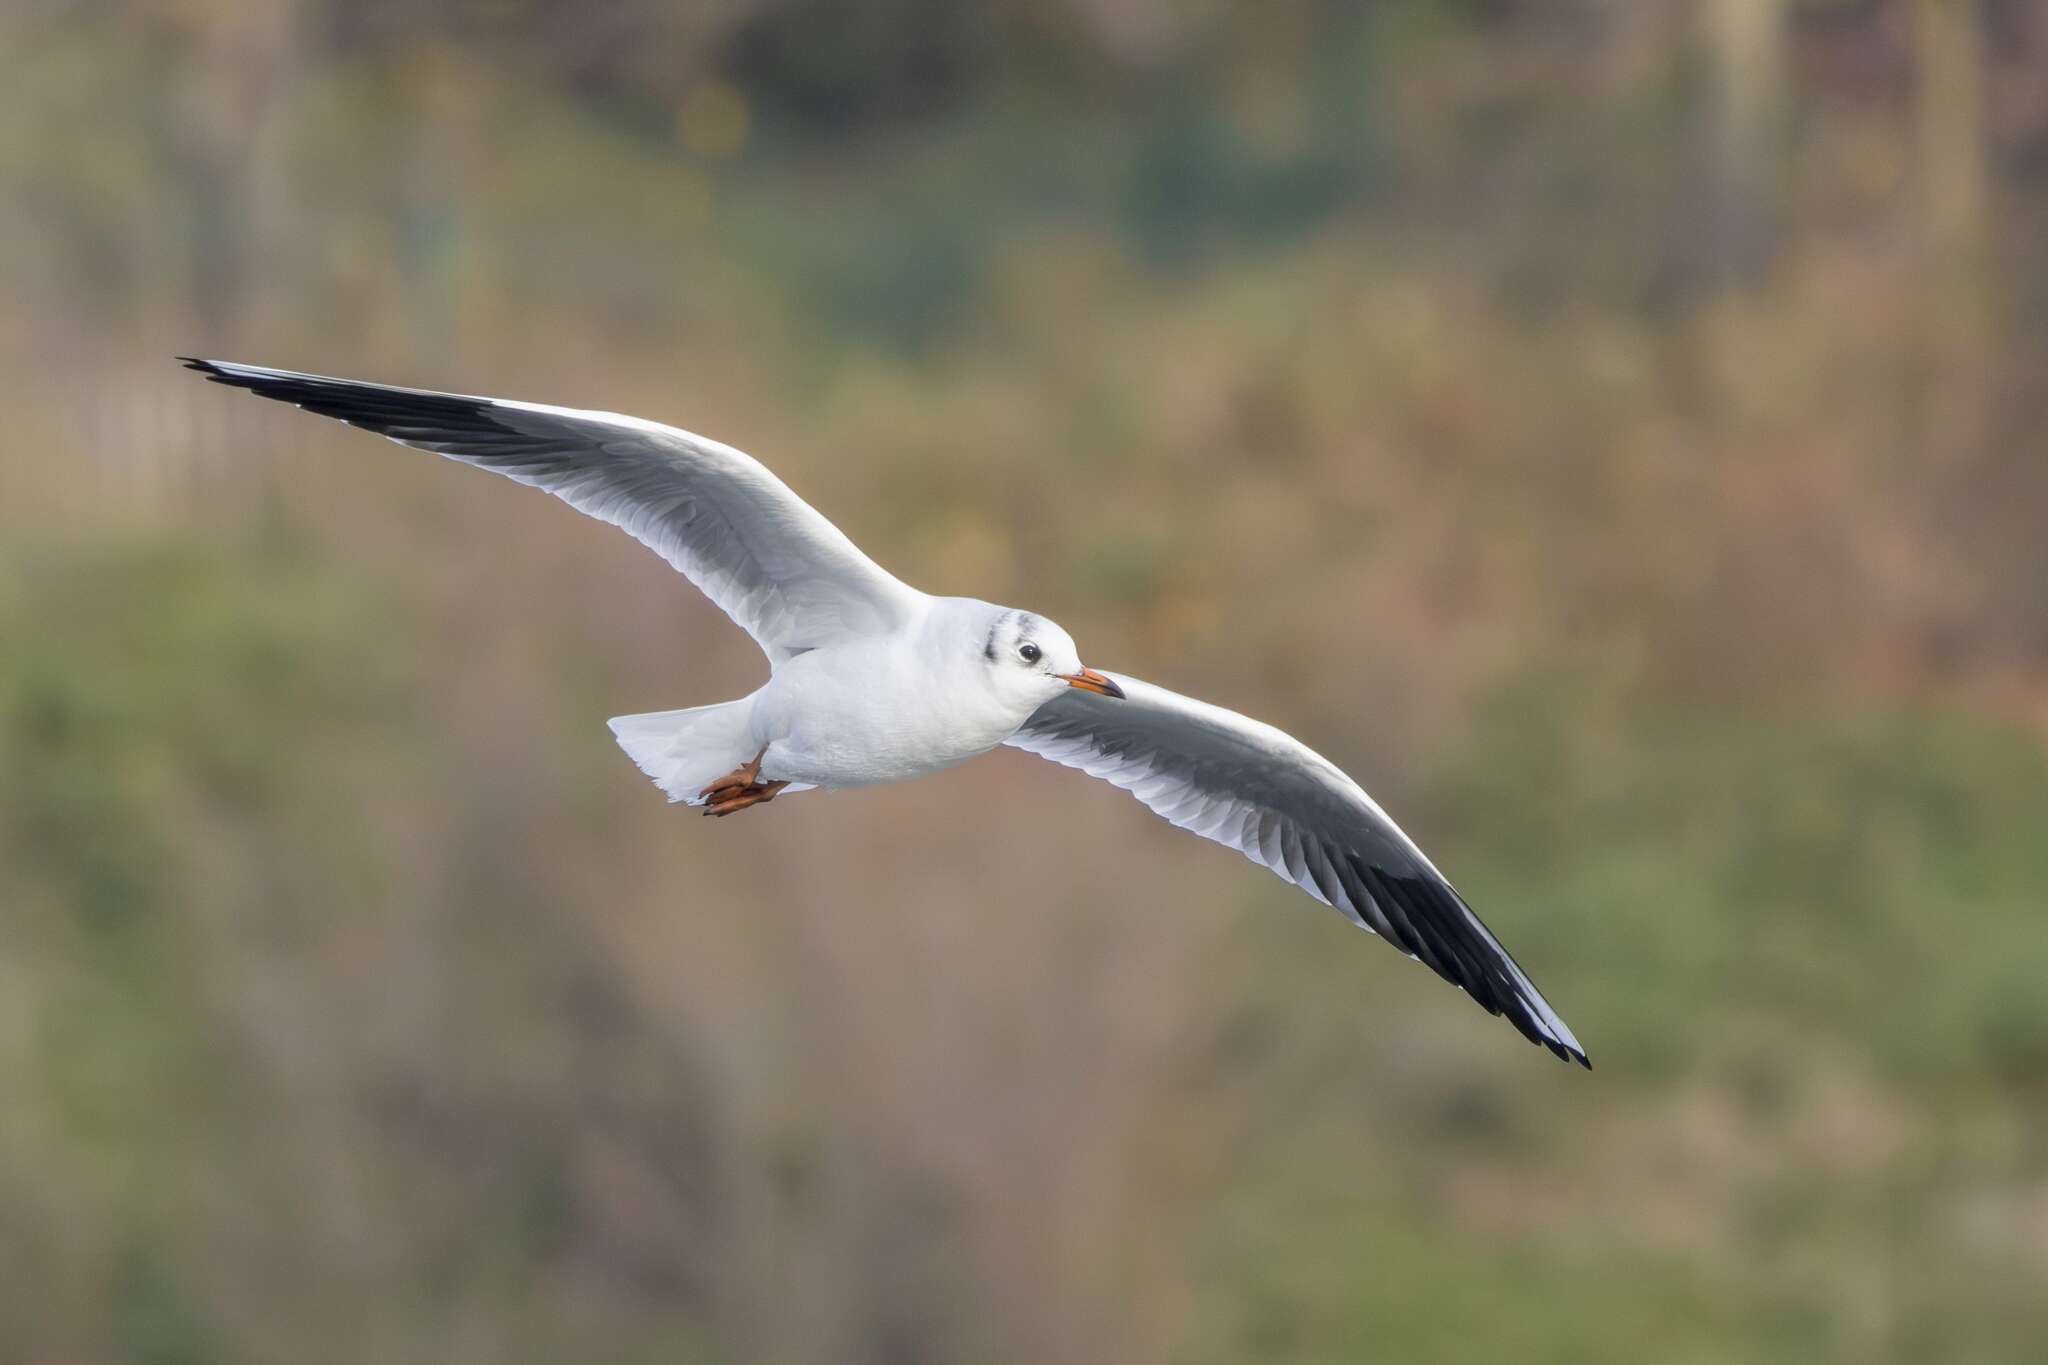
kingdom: Animalia
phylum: Chordata
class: Aves
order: Charadriiformes
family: Laridae
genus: Chroicocephalus
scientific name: Chroicocephalus ridibundus
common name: Black-headed gull
